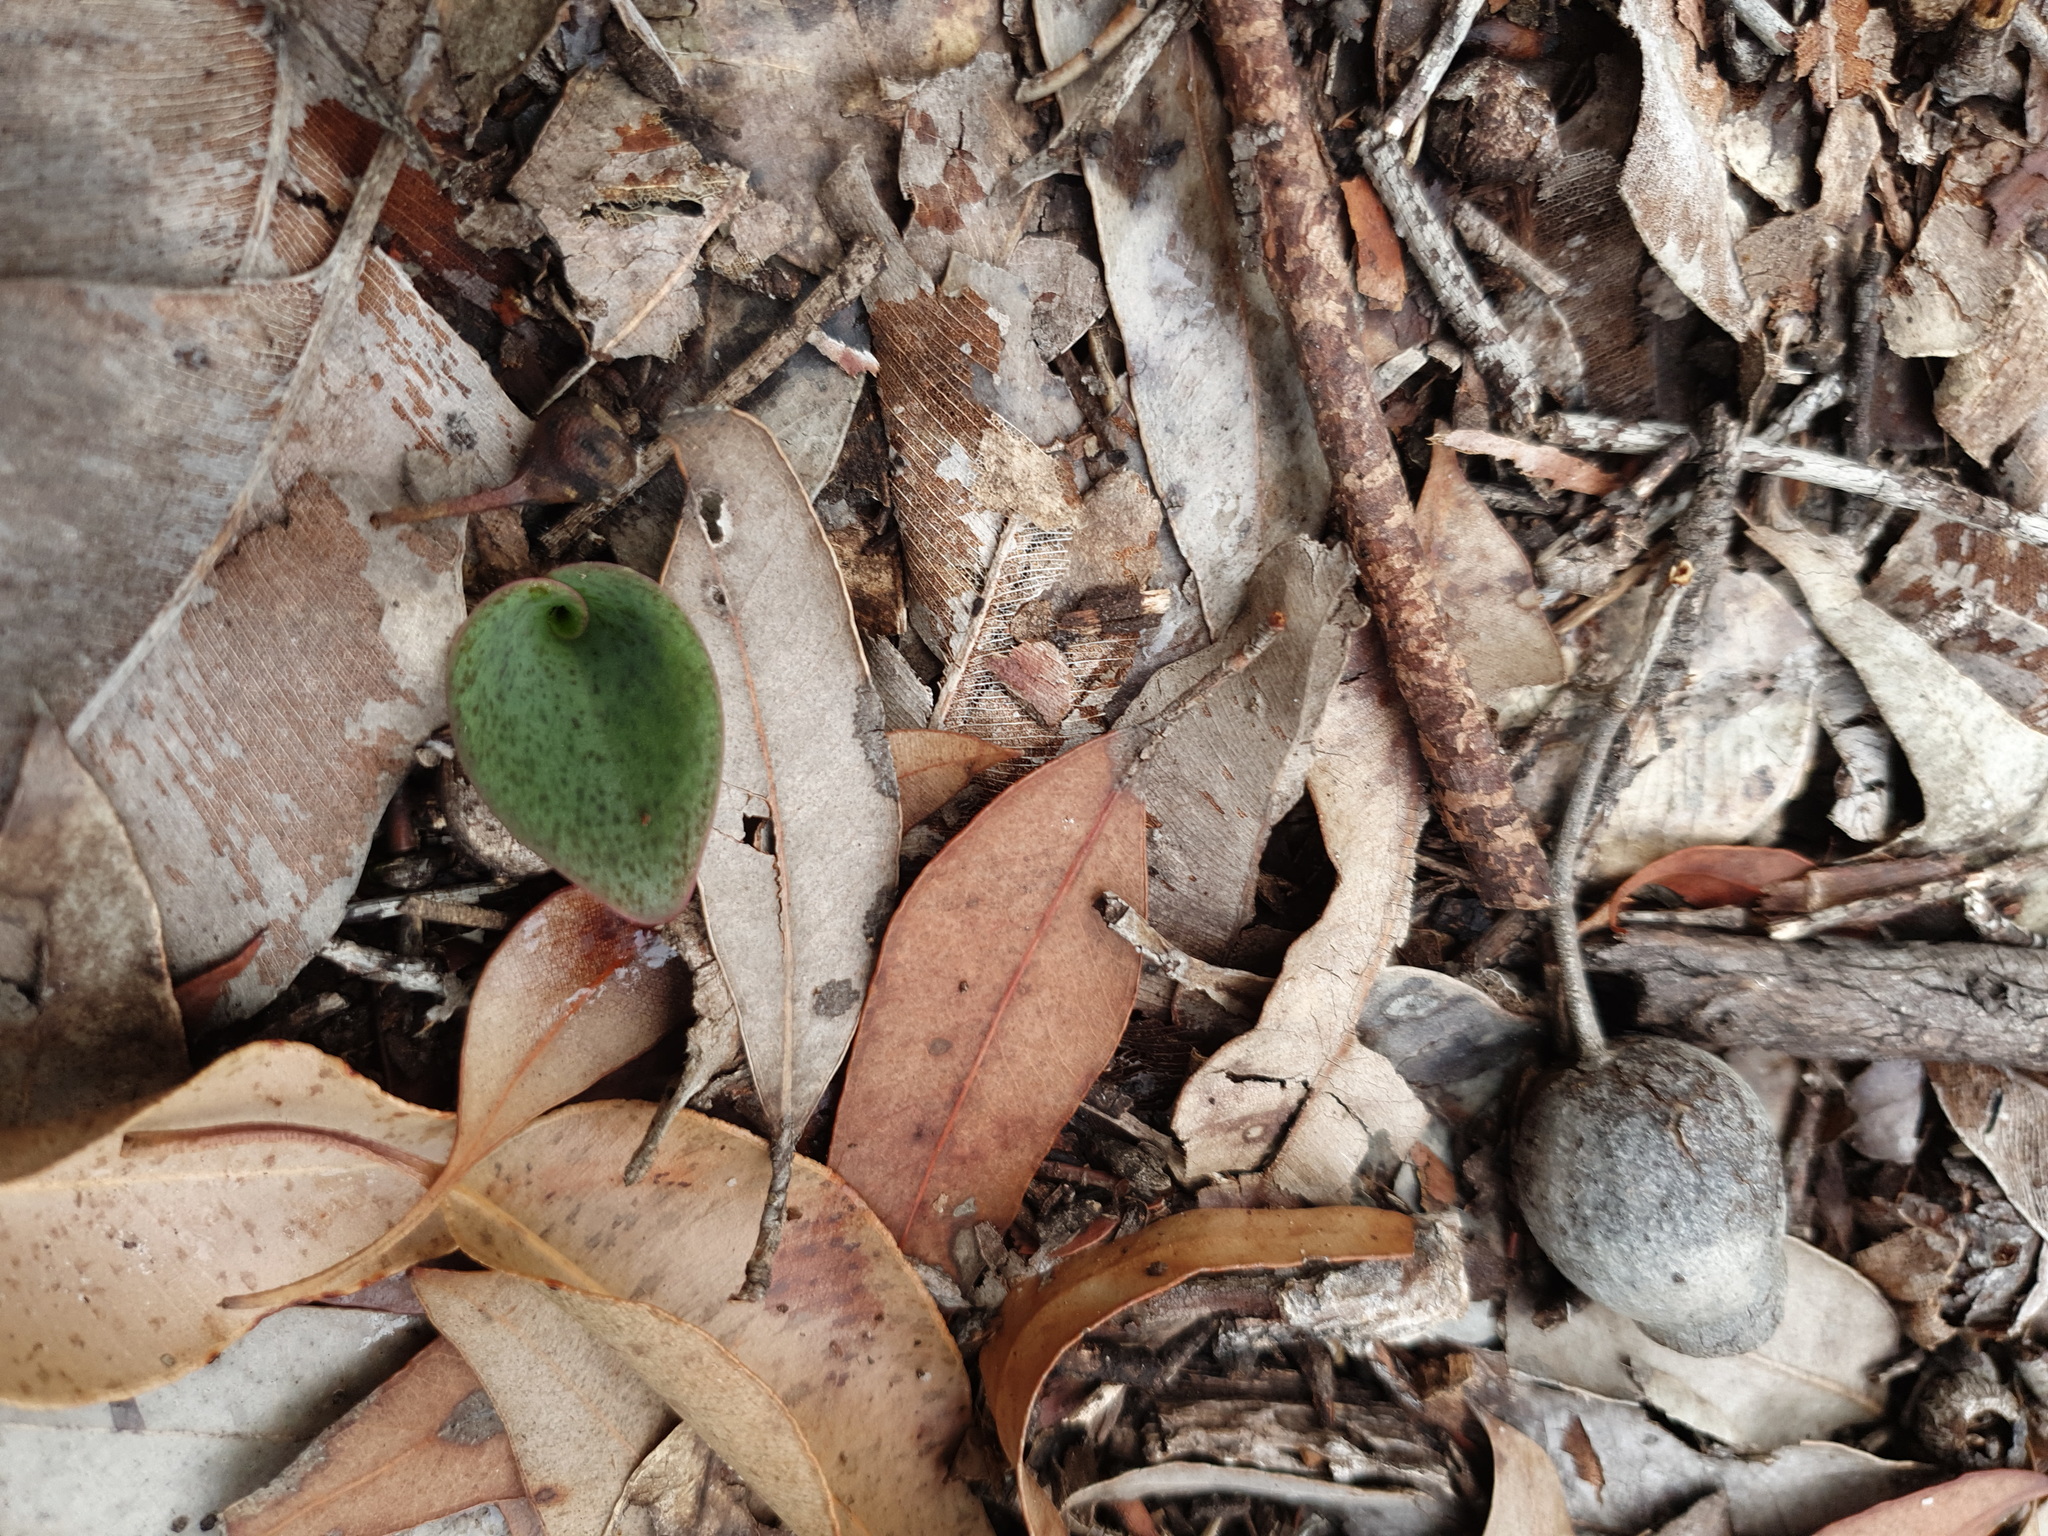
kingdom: Plantae
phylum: Tracheophyta
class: Liliopsida
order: Asparagales
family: Orchidaceae
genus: Pyrorchis
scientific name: Pyrorchis nigricans
